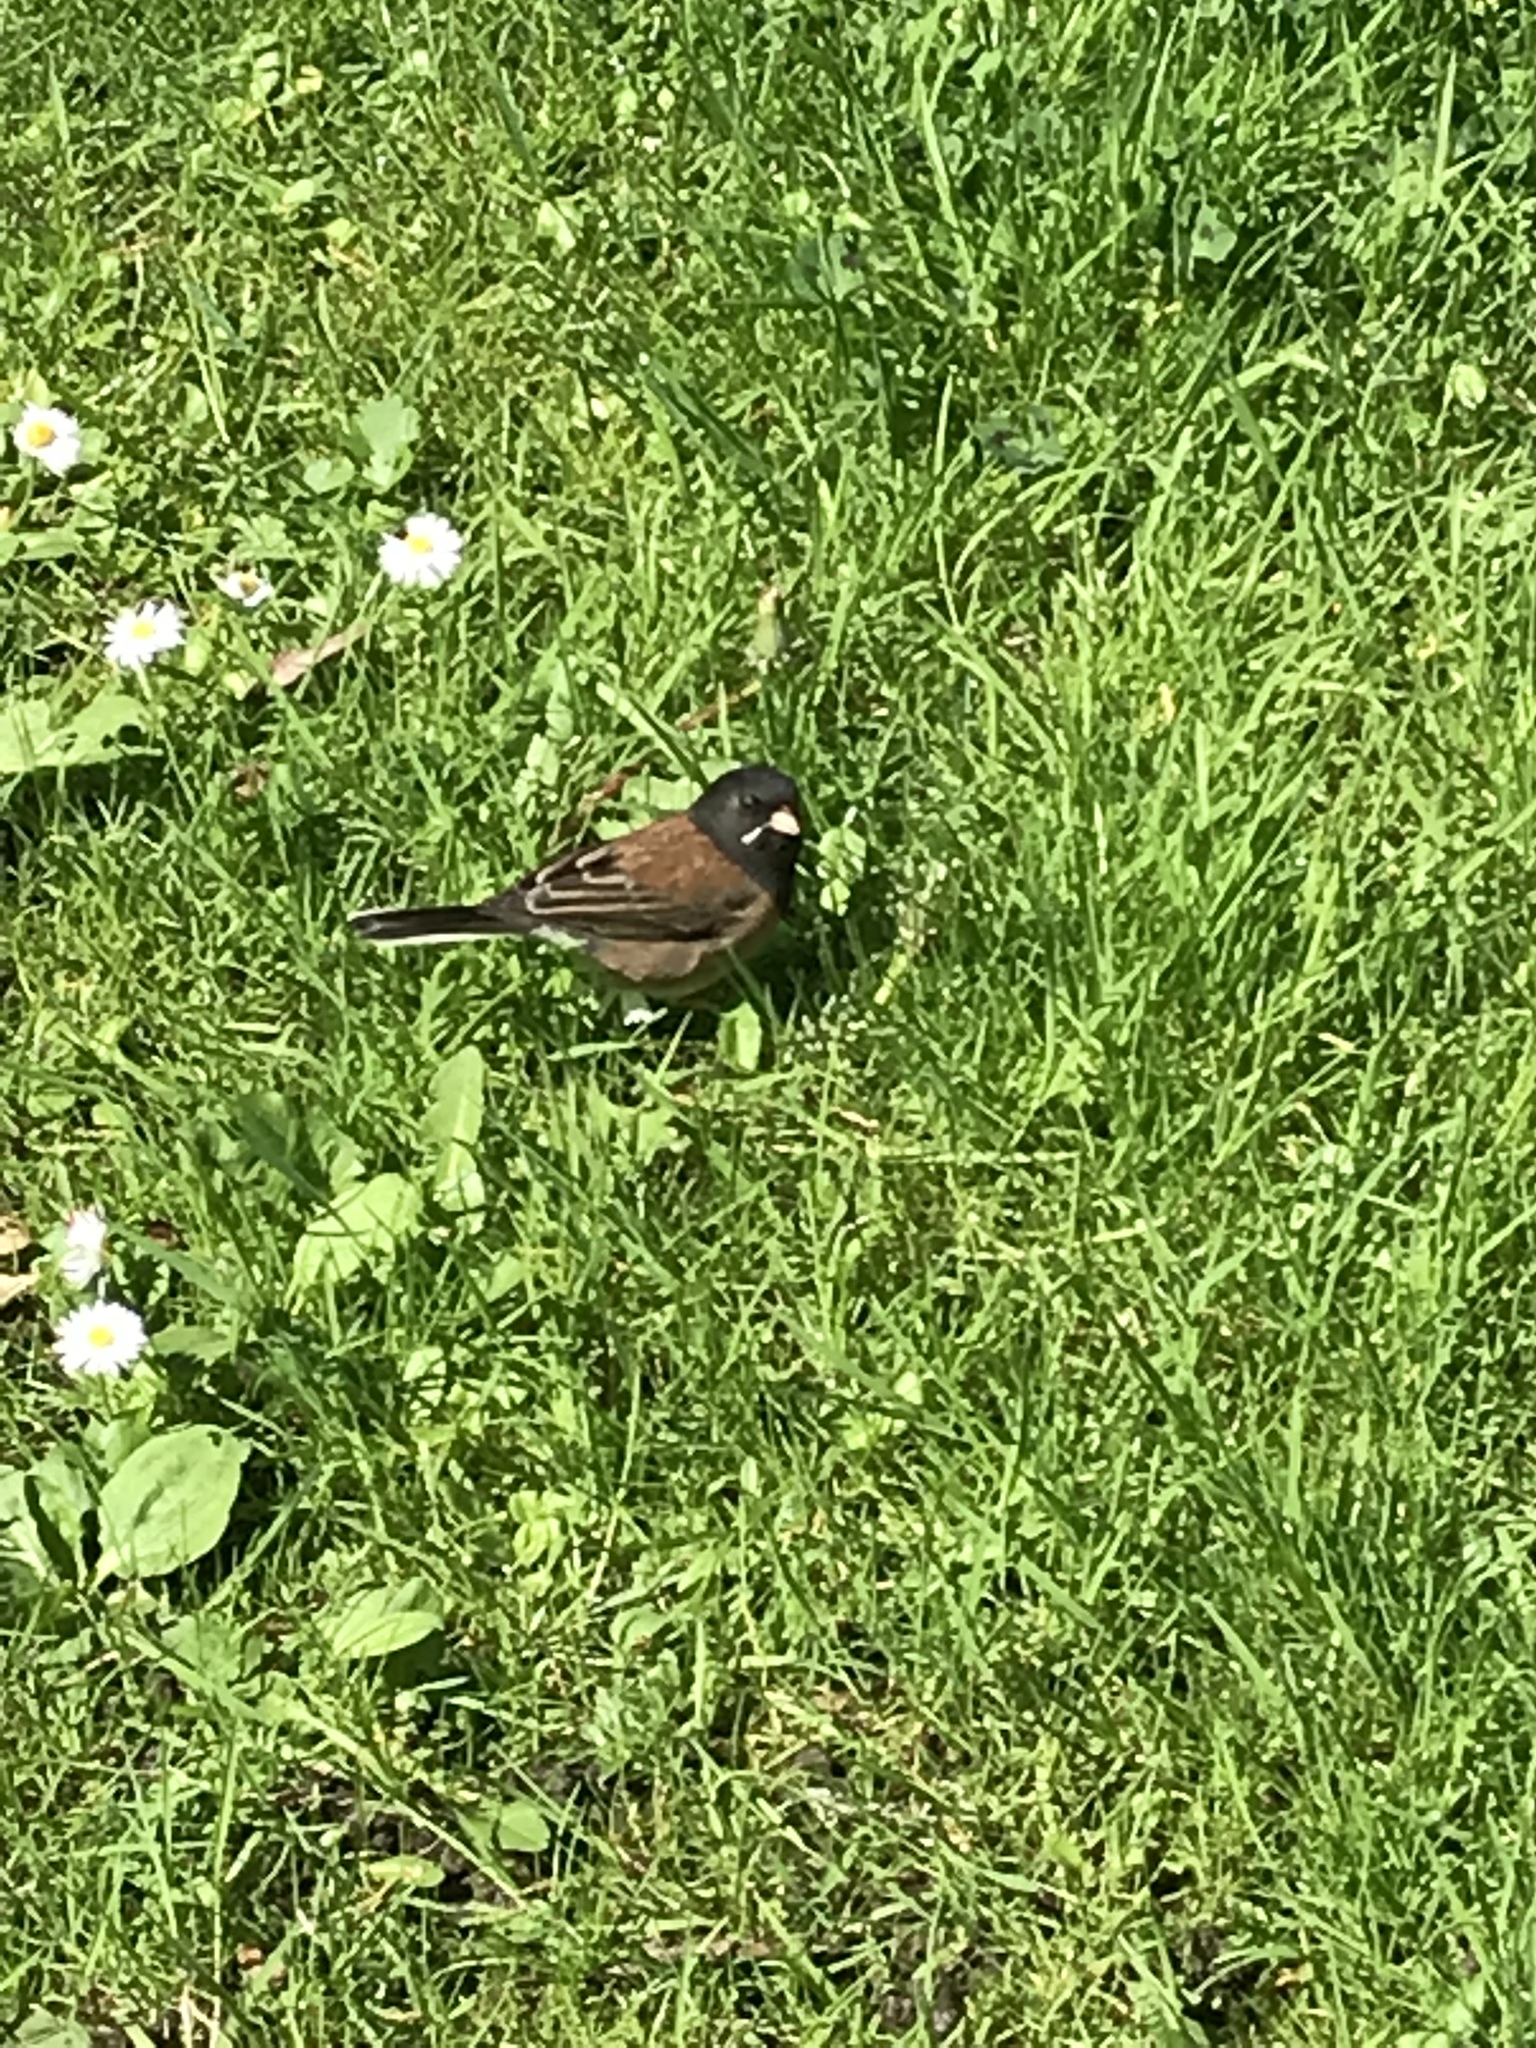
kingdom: Animalia
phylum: Chordata
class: Aves
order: Passeriformes
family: Passerellidae
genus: Junco
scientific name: Junco hyemalis
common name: Dark-eyed junco
